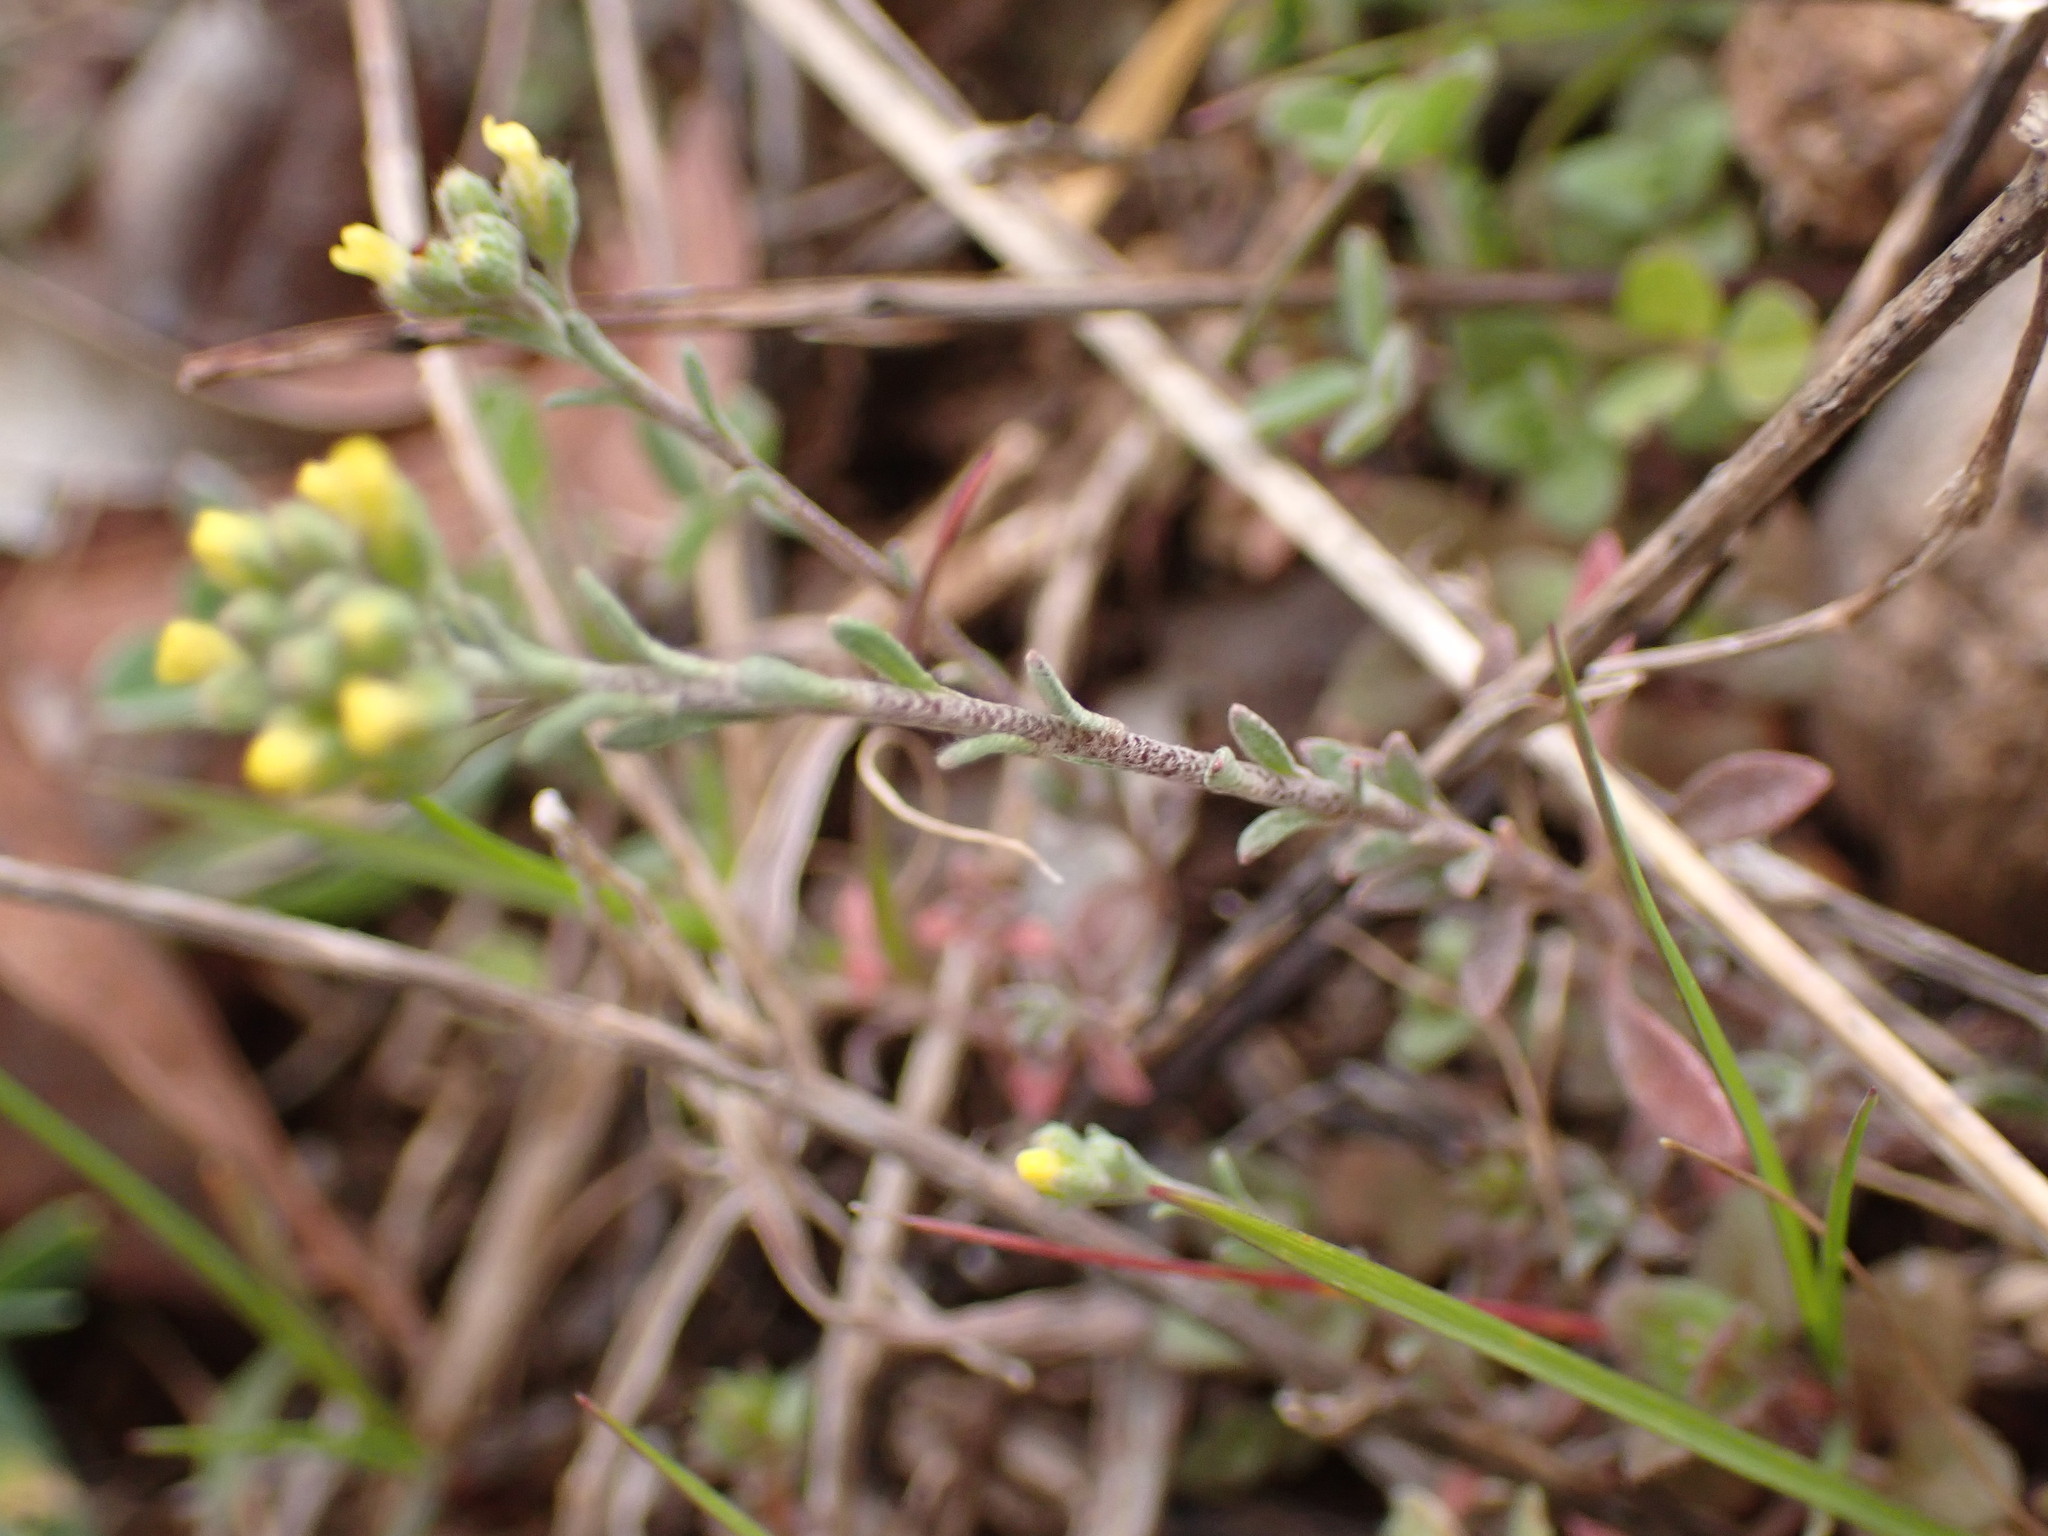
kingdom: Plantae
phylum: Tracheophyta
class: Magnoliopsida
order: Brassicales
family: Brassicaceae
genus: Alyssum
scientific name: Alyssum alyssoides
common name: Small alison
